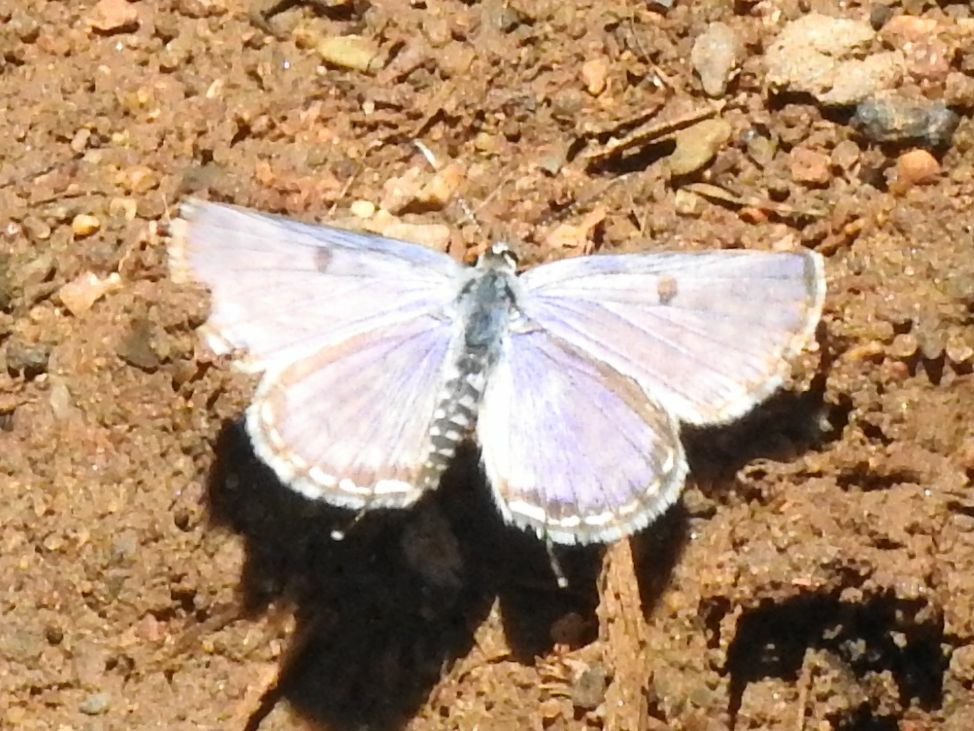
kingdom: Animalia
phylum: Arthropoda
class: Insecta
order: Lepidoptera
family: Lycaenidae
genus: Tarucus
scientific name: Tarucus sybaris
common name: Dotted blue
